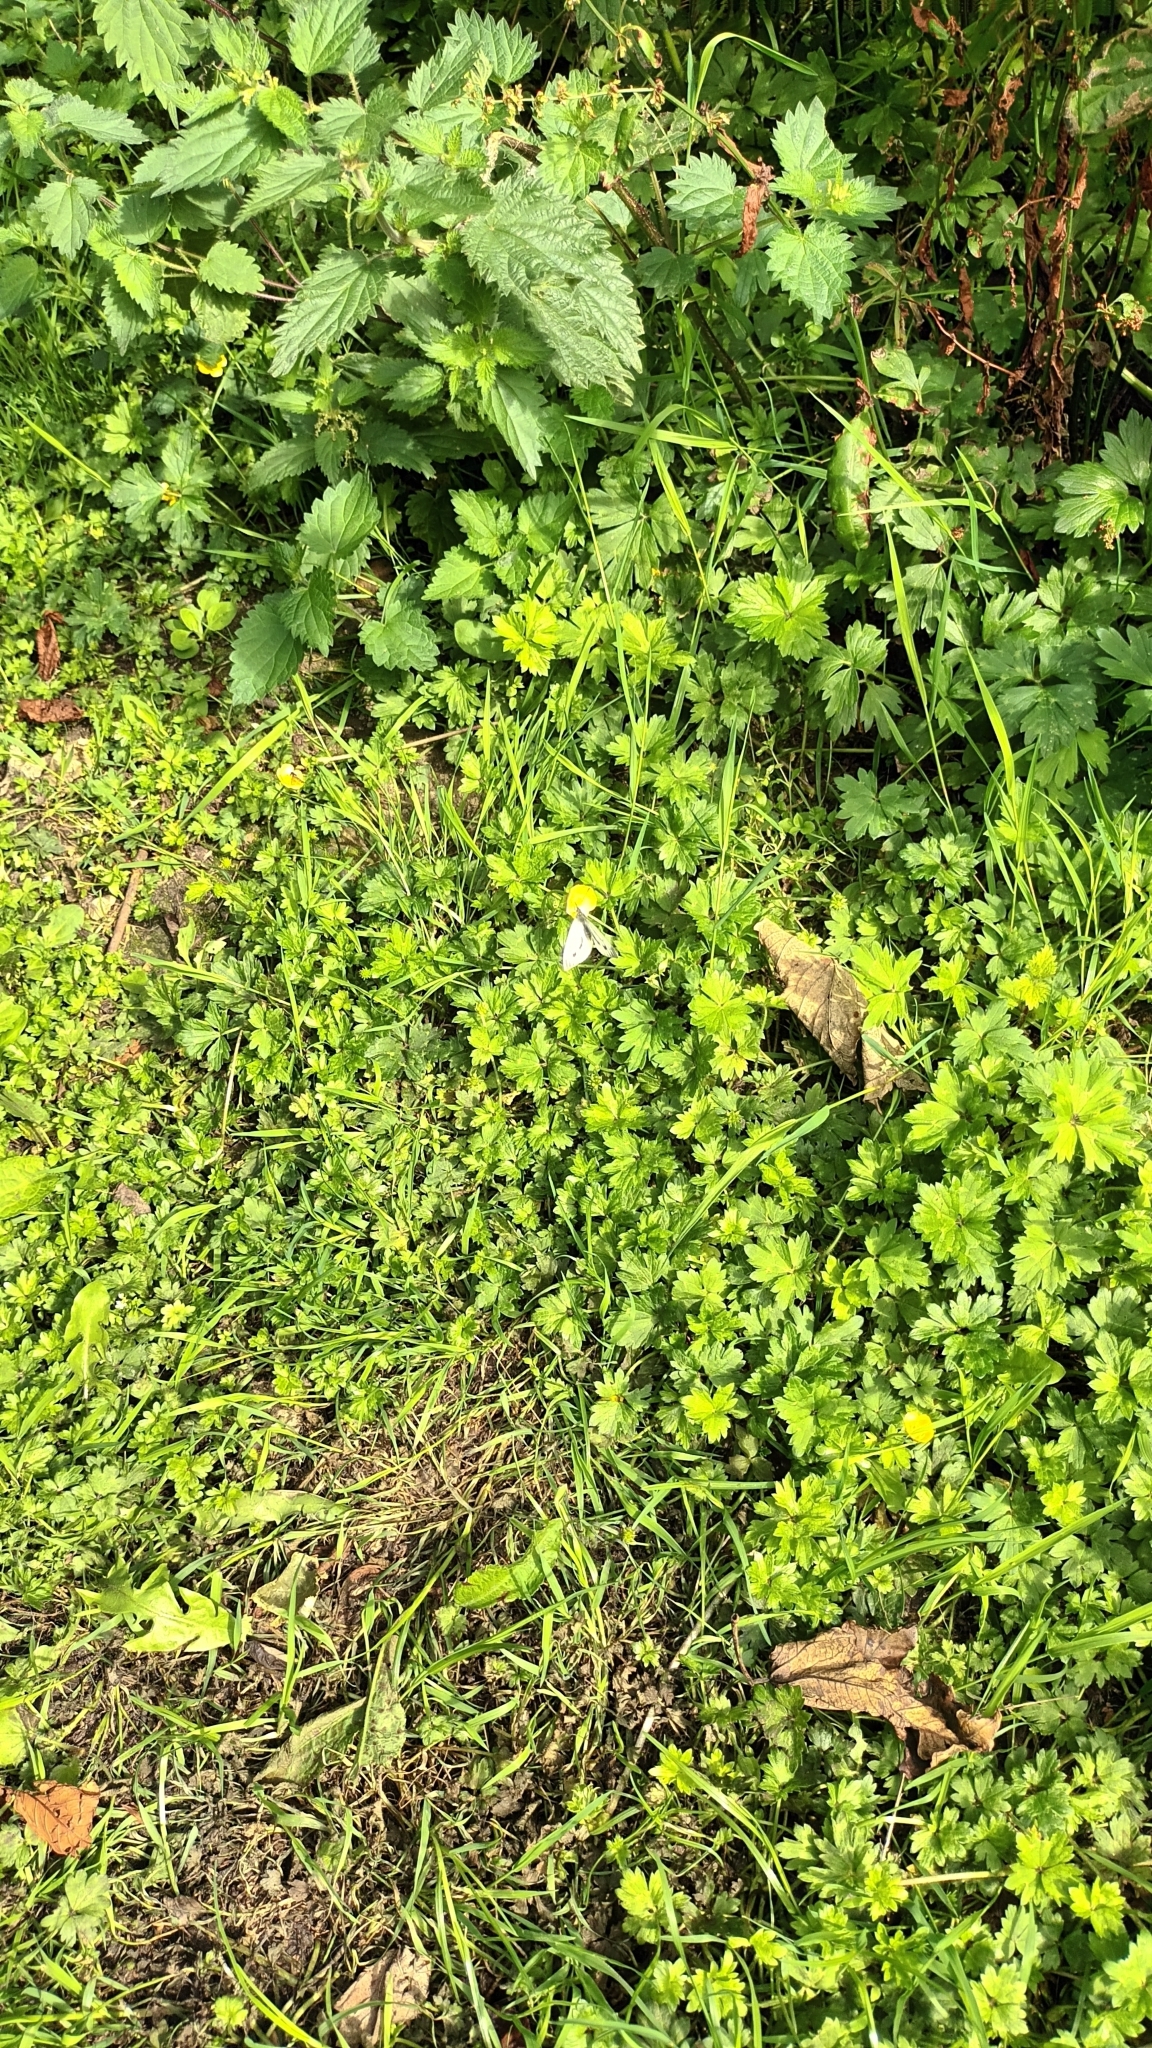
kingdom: Animalia
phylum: Arthropoda
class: Insecta
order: Lepidoptera
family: Pieridae
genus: Pieris
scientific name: Pieris napi
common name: Green-veined white
